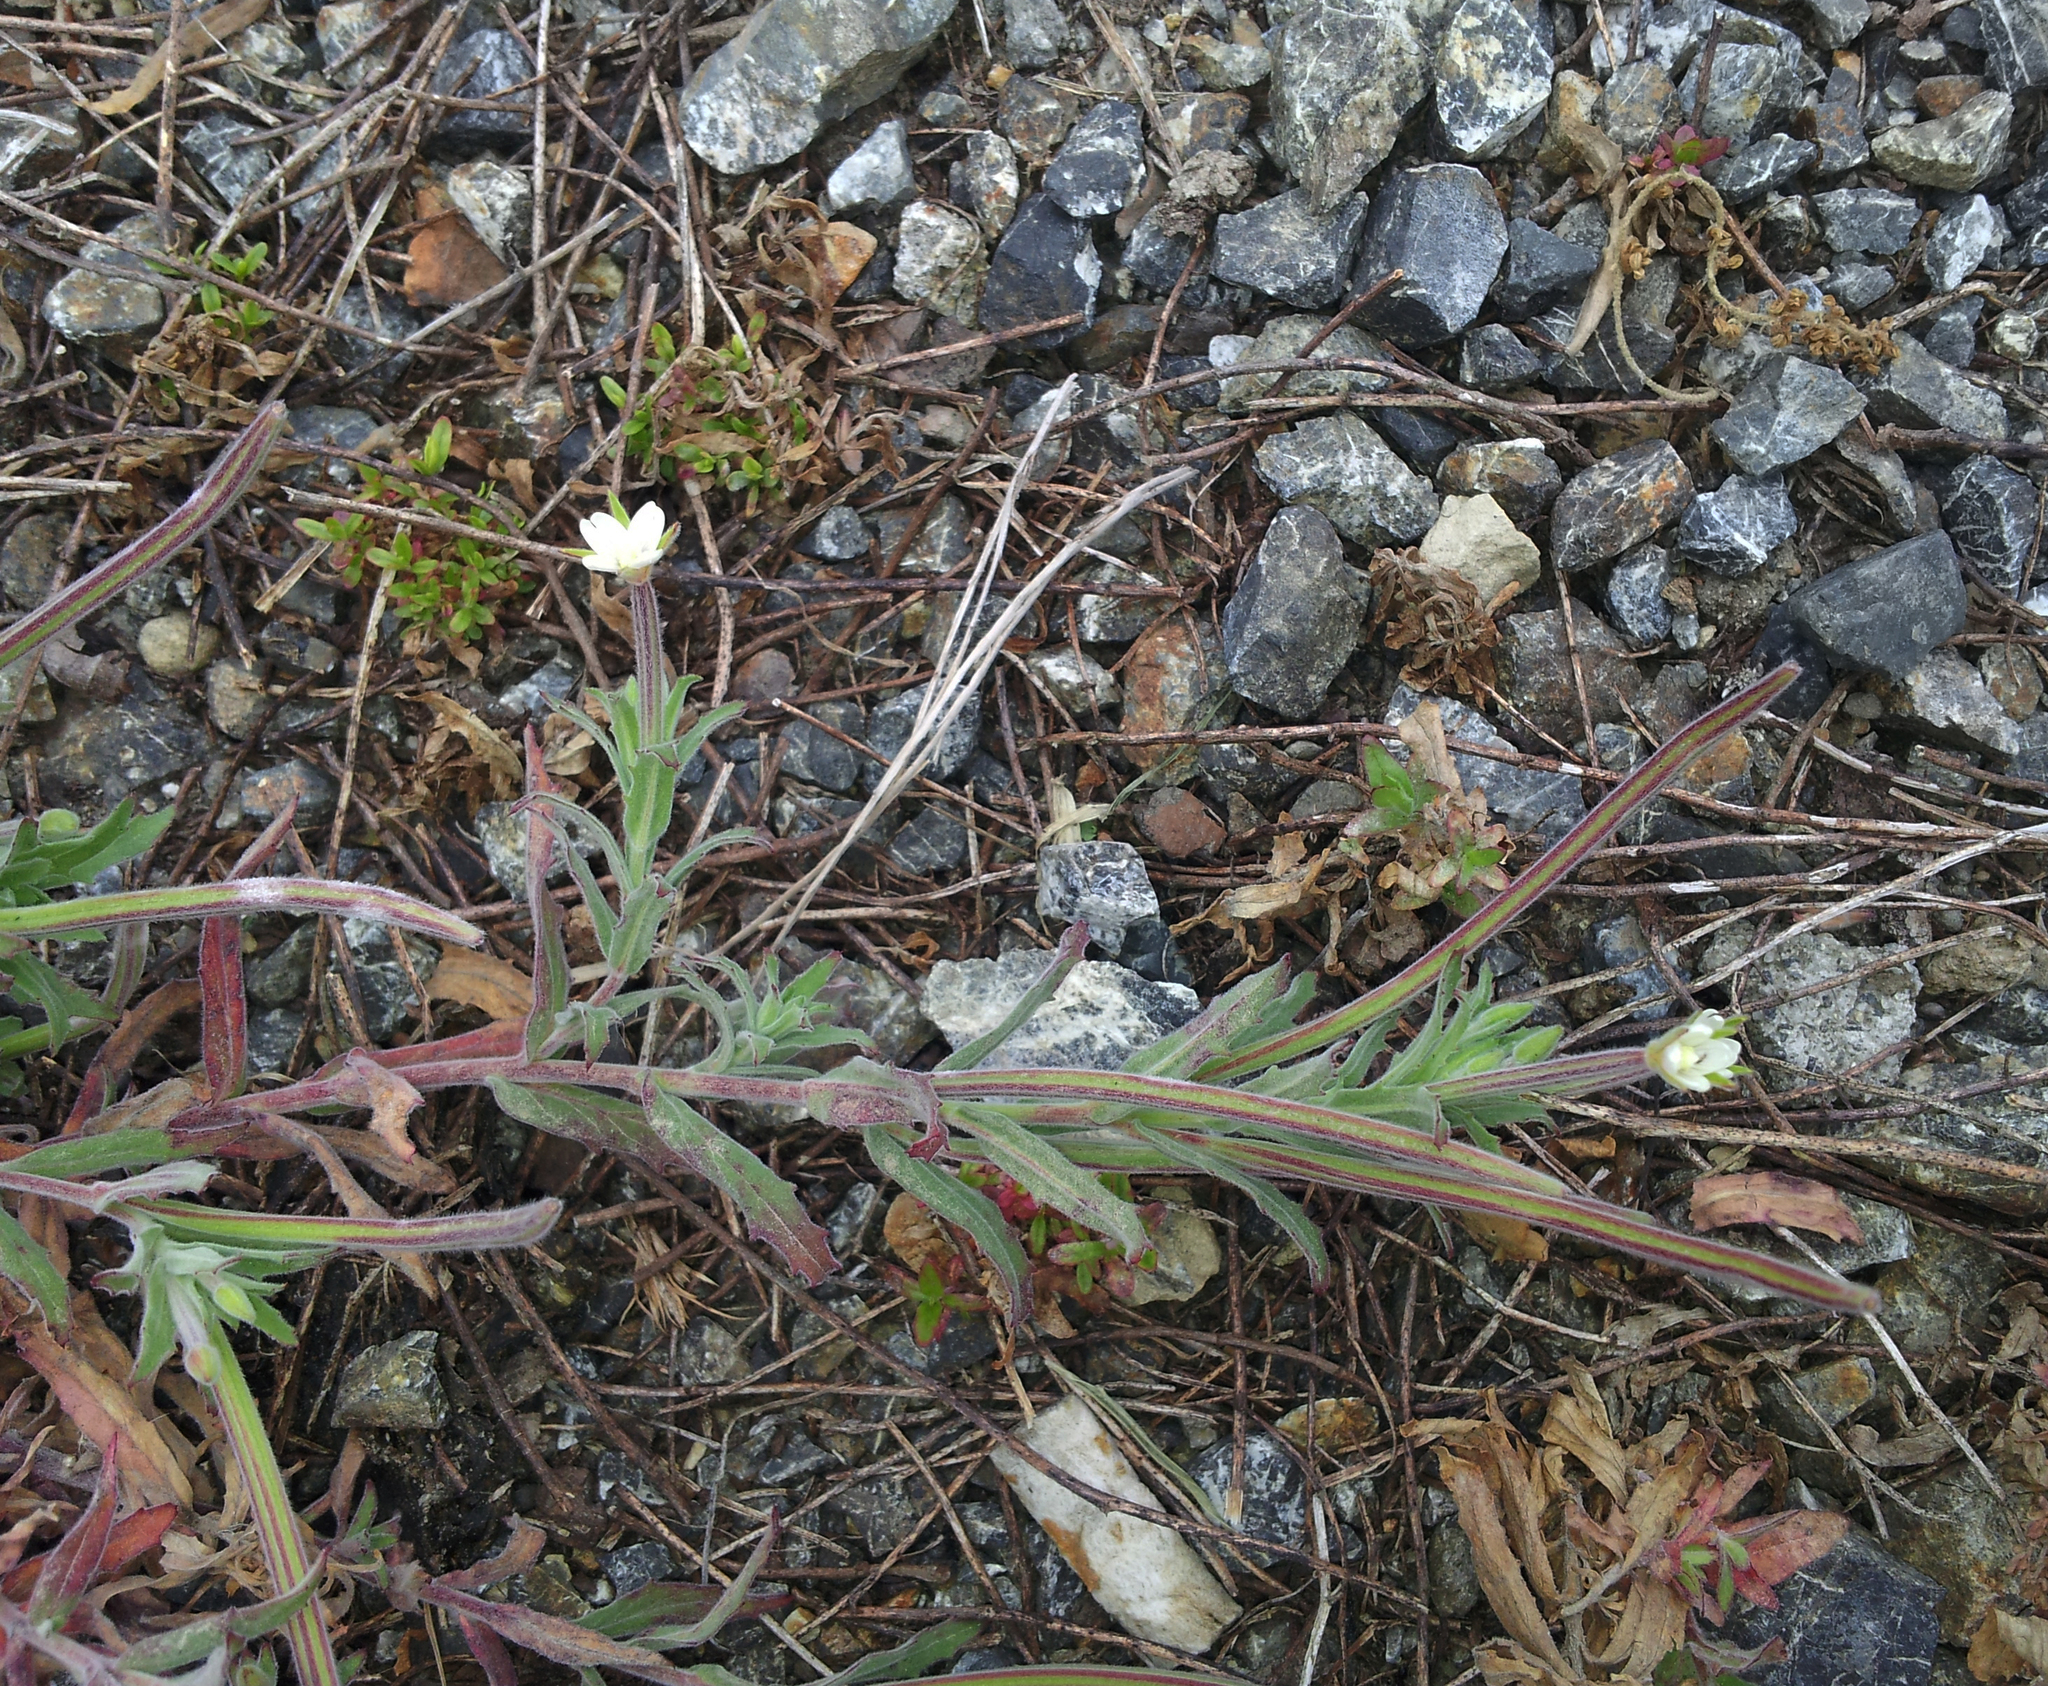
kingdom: Plantae
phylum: Tracheophyta
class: Magnoliopsida
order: Myrtales
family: Onagraceae
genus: Epilobium
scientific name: Epilobium hirtigerum
